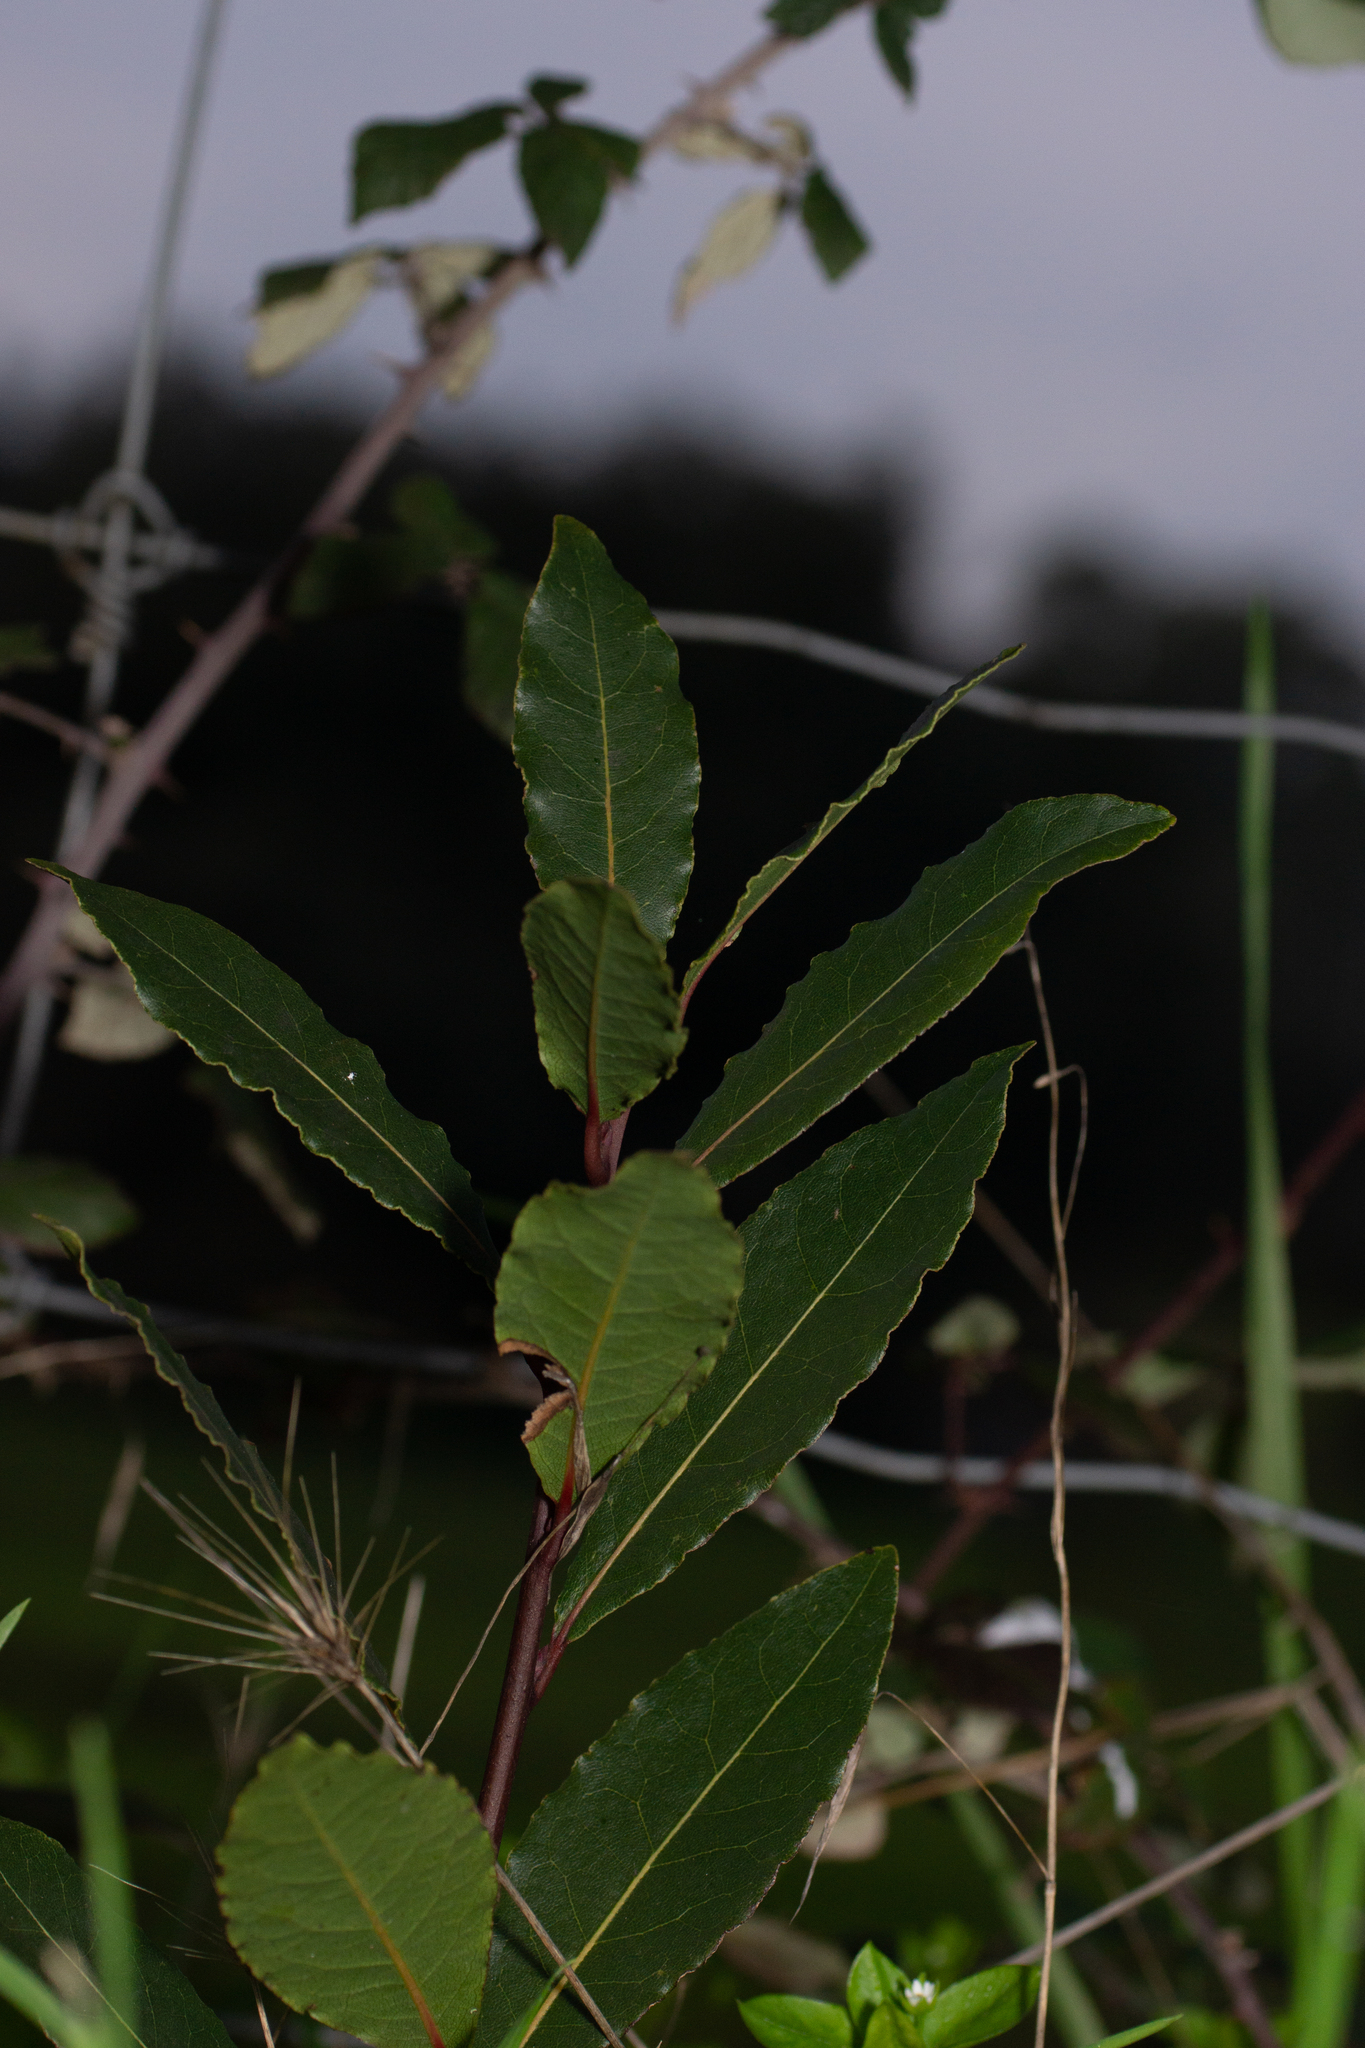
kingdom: Plantae
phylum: Tracheophyta
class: Magnoliopsida
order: Laurales
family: Lauraceae
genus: Laurus
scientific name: Laurus nobilis
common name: Bay
